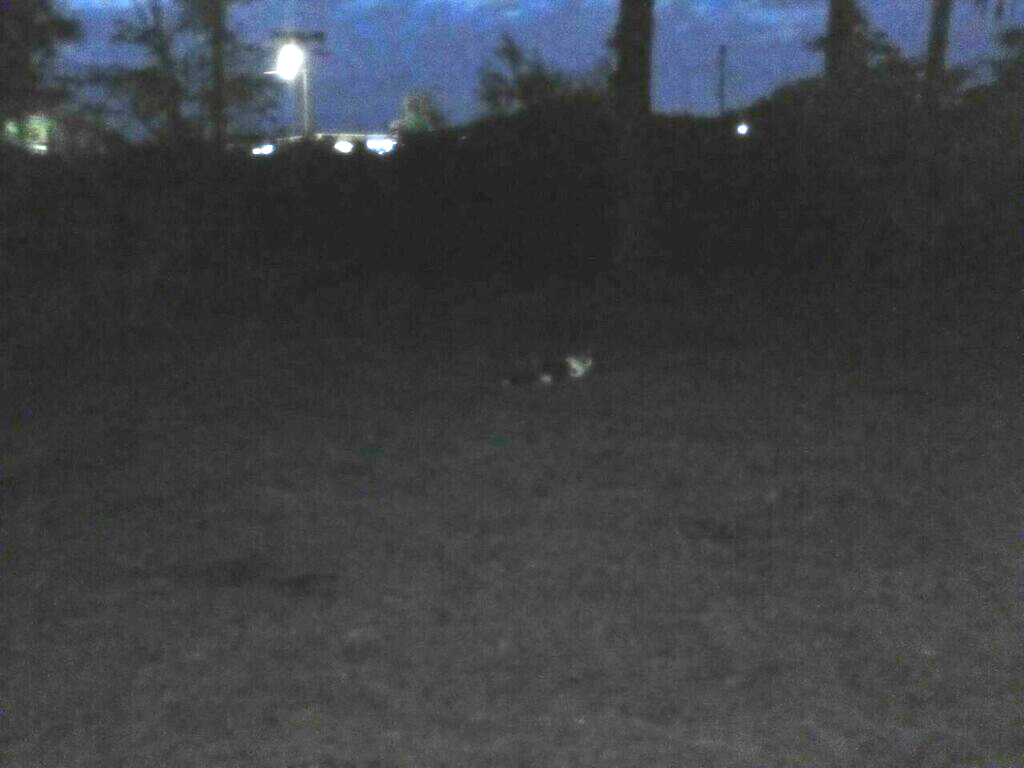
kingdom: Animalia
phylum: Chordata
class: Mammalia
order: Carnivora
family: Felidae
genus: Felis
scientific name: Felis catus
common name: Domestic cat
